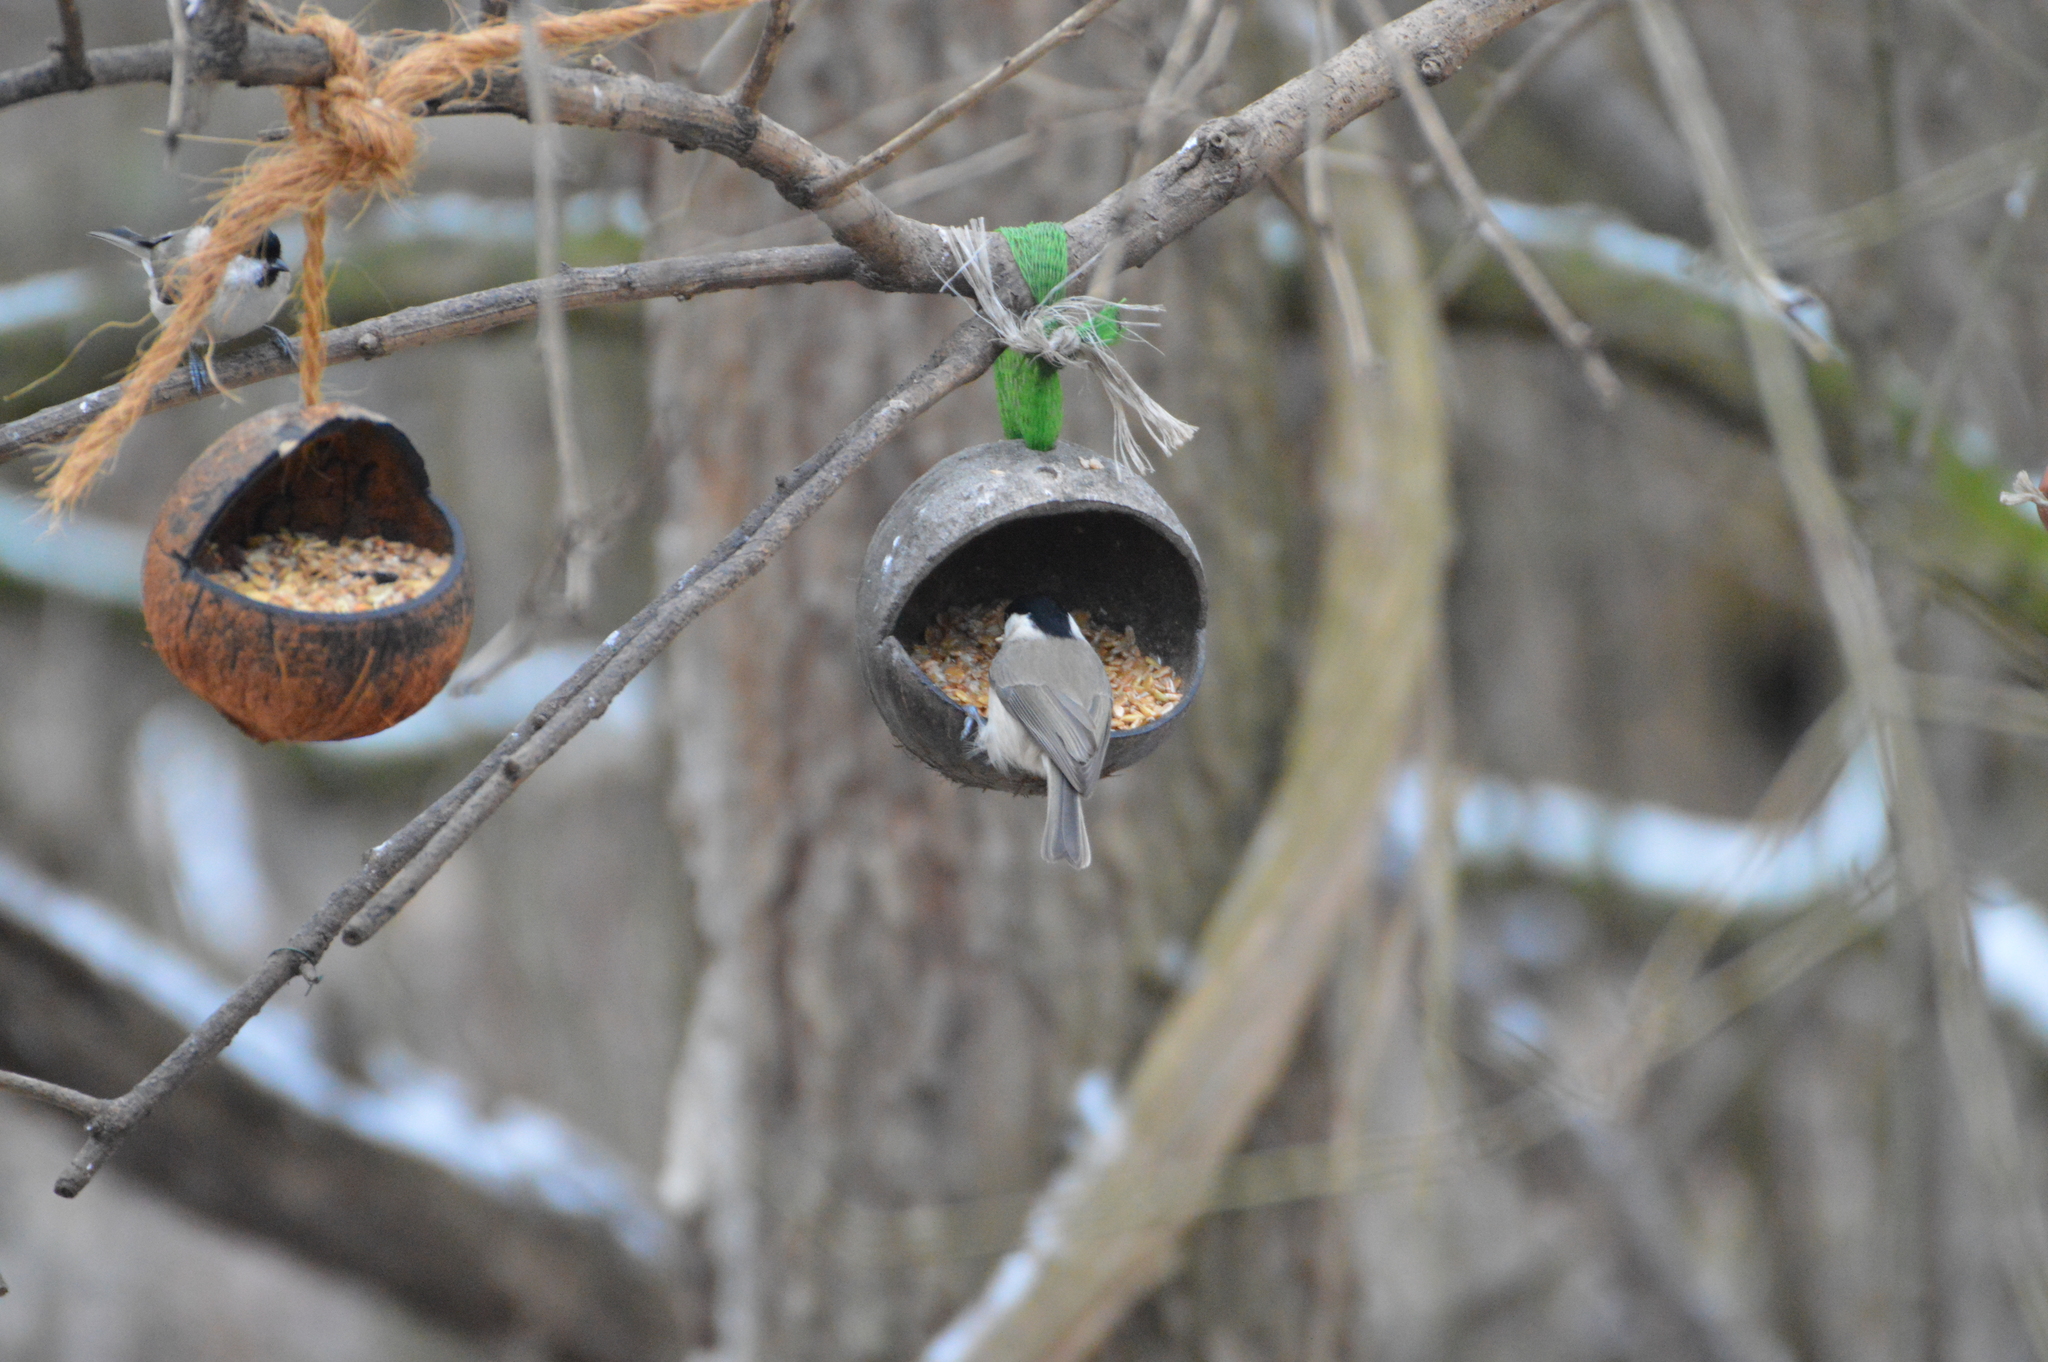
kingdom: Animalia
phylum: Chordata
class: Aves
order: Passeriformes
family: Paridae
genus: Poecile
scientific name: Poecile palustris
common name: Marsh tit
